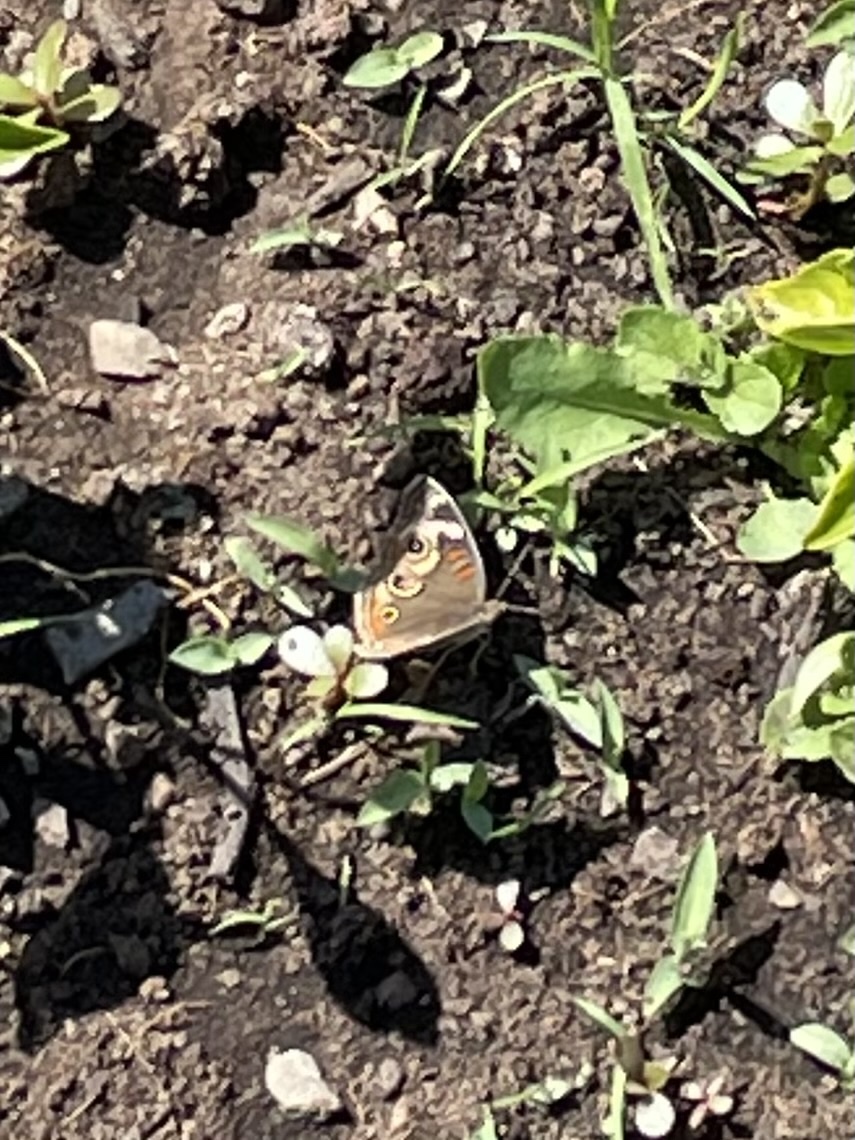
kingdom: Animalia
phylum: Arthropoda
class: Insecta
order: Lepidoptera
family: Nymphalidae
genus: Junonia
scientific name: Junonia grisea
